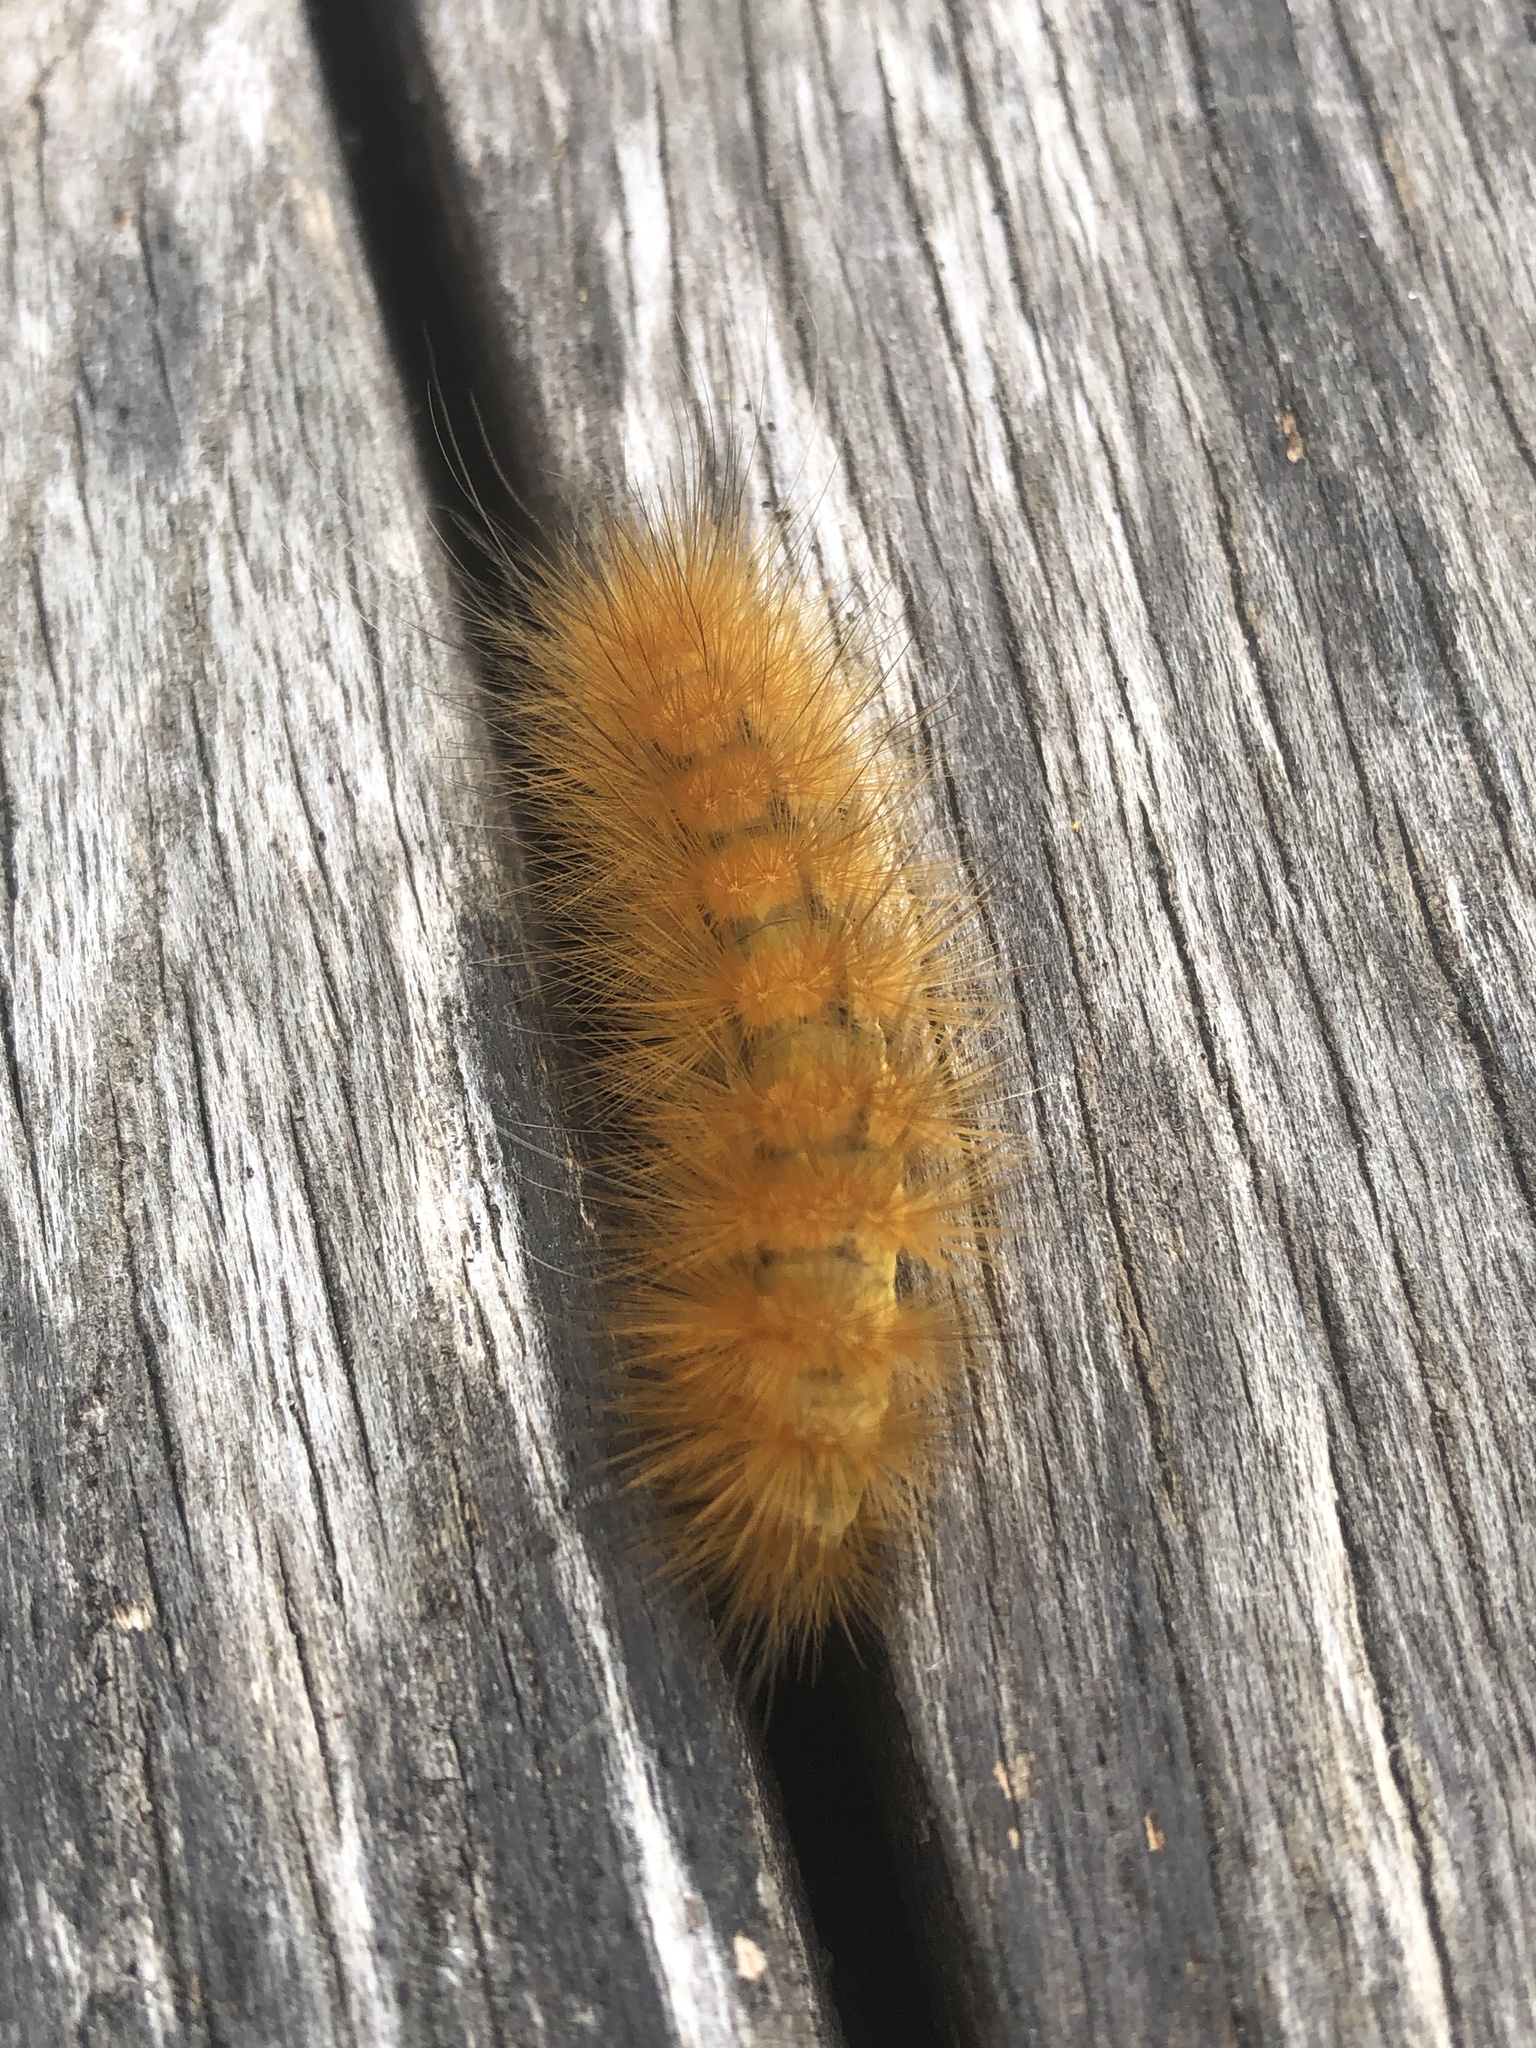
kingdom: Animalia
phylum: Arthropoda
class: Insecta
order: Lepidoptera
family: Erebidae
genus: Spilosoma
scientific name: Spilosoma virginica
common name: Virginia tiger moth
